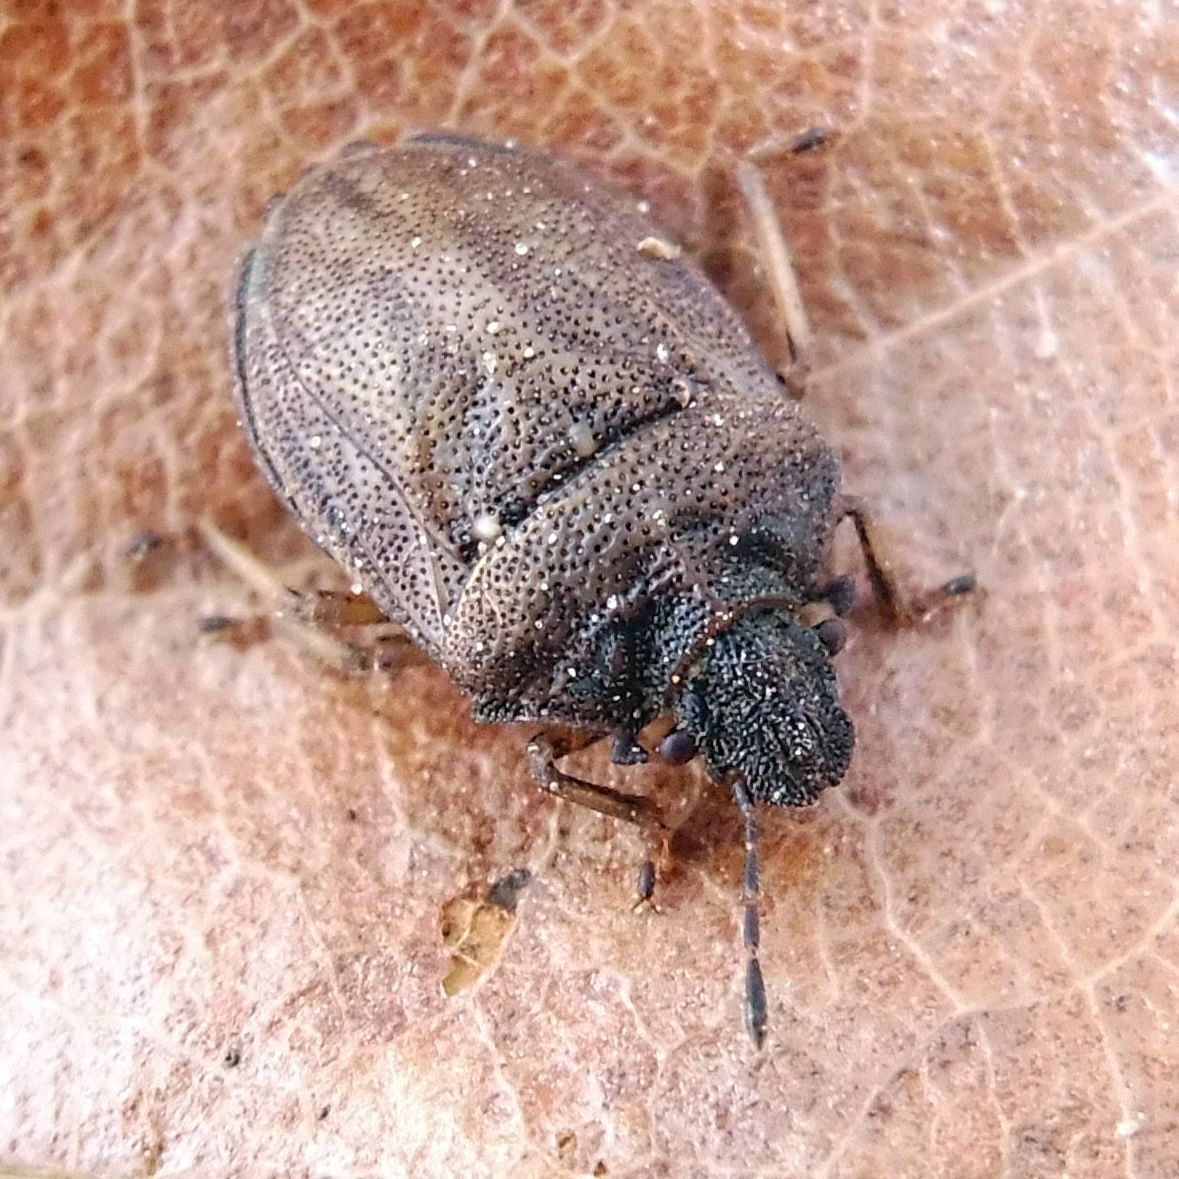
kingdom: Animalia
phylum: Arthropoda
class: Insecta
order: Hemiptera
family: Pentatomidae
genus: Podops
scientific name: Podops inunctus
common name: Turtle bug
